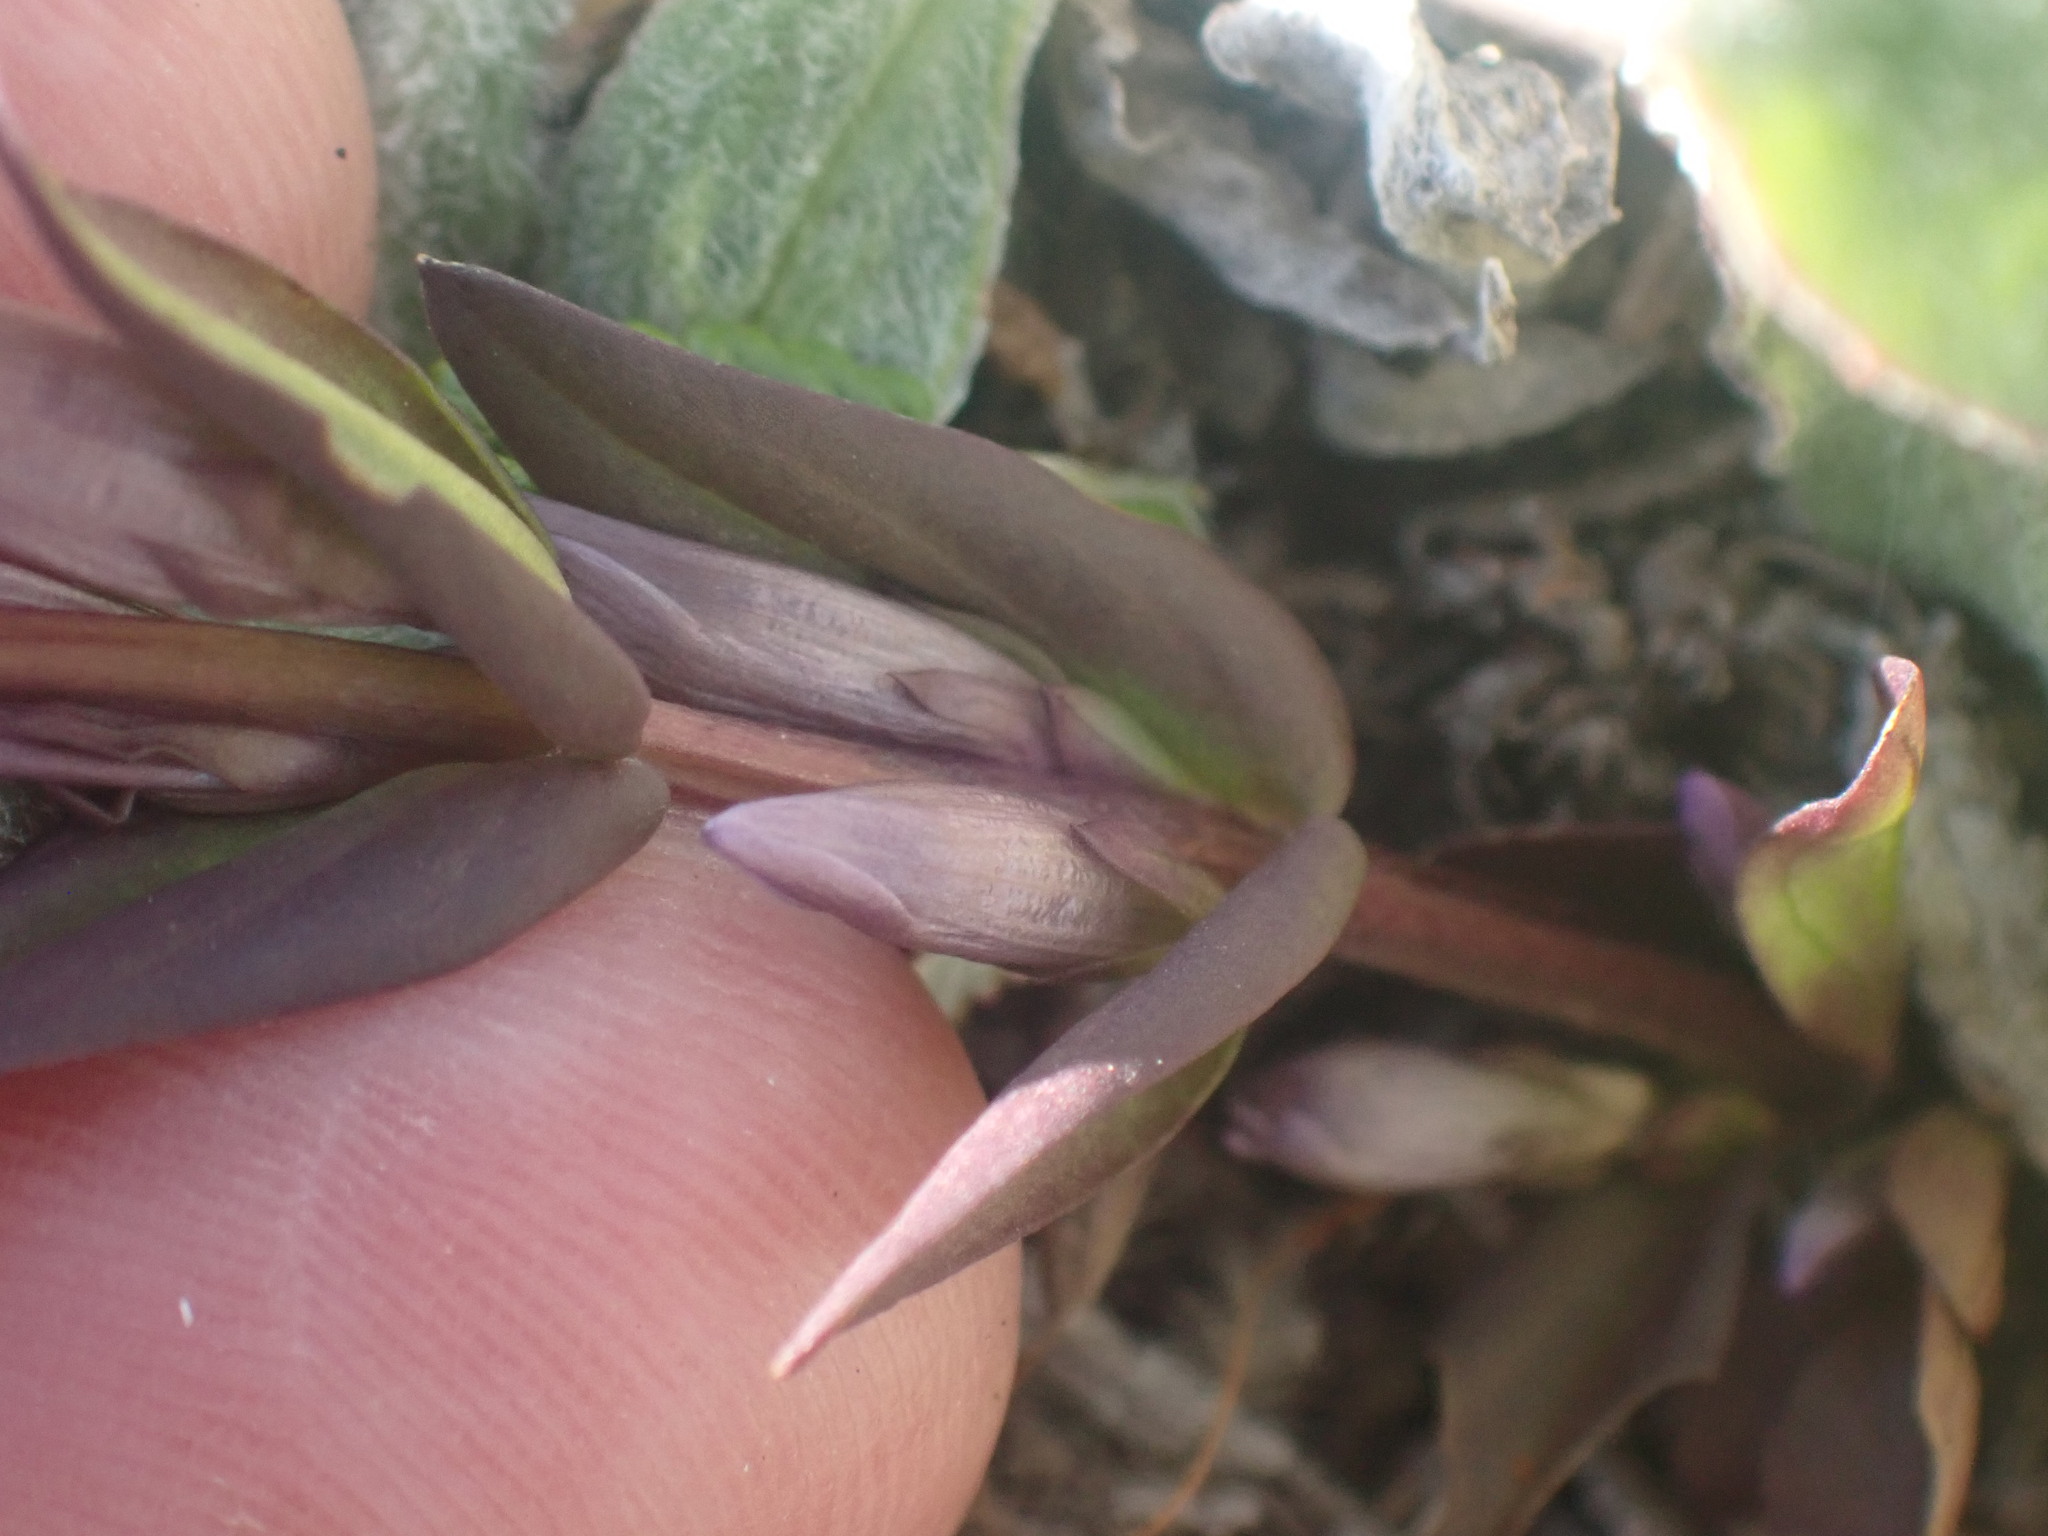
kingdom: Plantae
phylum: Tracheophyta
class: Magnoliopsida
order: Gentianales
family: Gentianaceae
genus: Gentianella
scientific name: Gentianella amarella
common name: Autumn gentian
